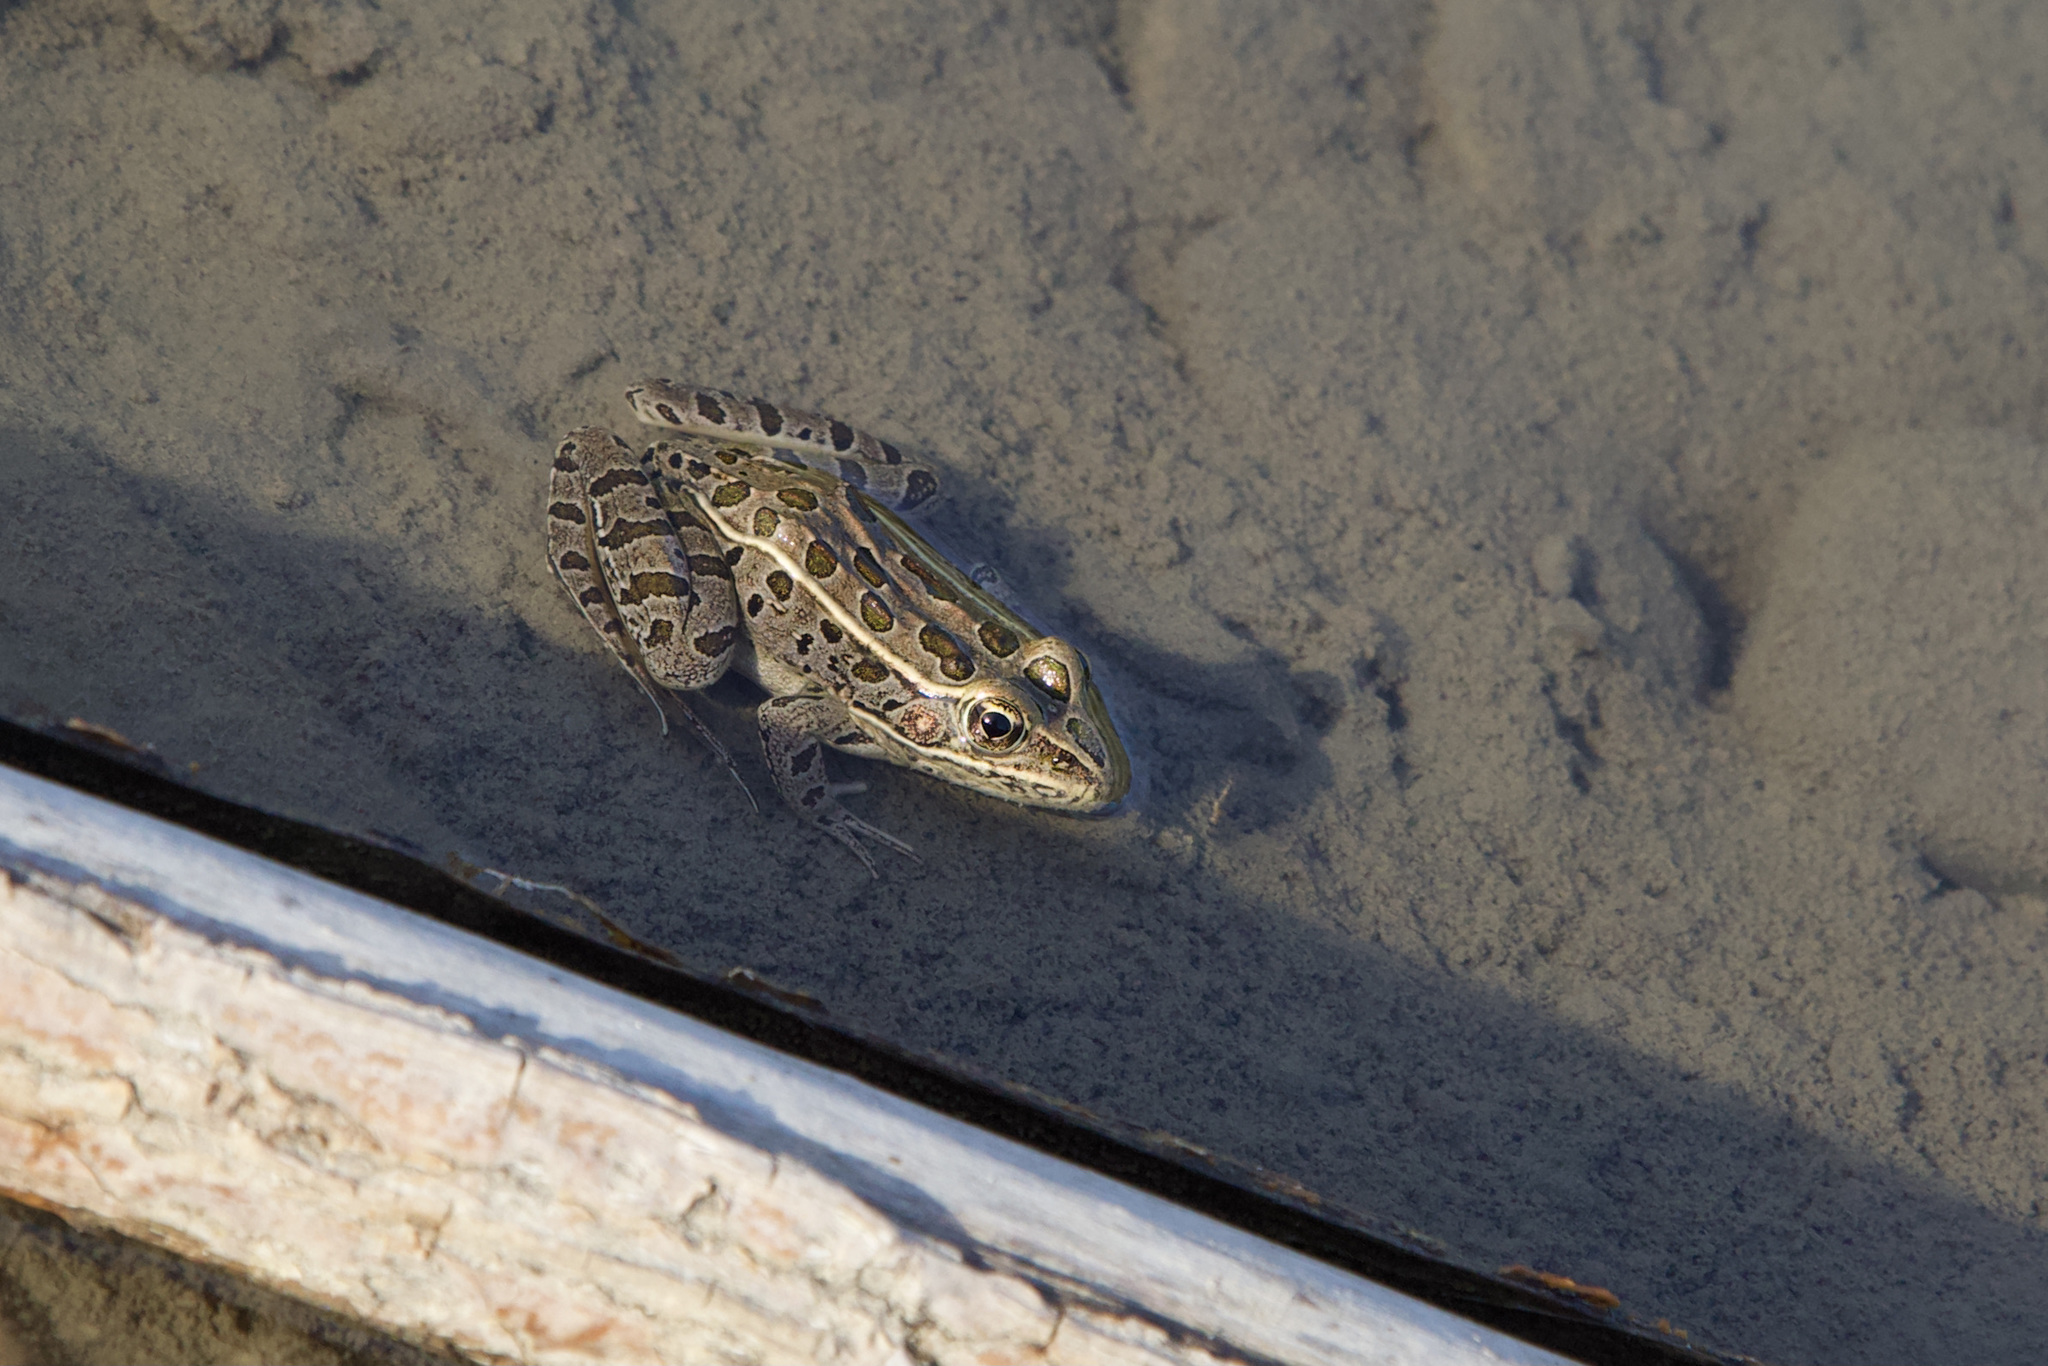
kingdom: Animalia
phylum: Chordata
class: Amphibia
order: Anura
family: Ranidae
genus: Lithobates
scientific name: Lithobates pipiens
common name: Northern leopard frog
